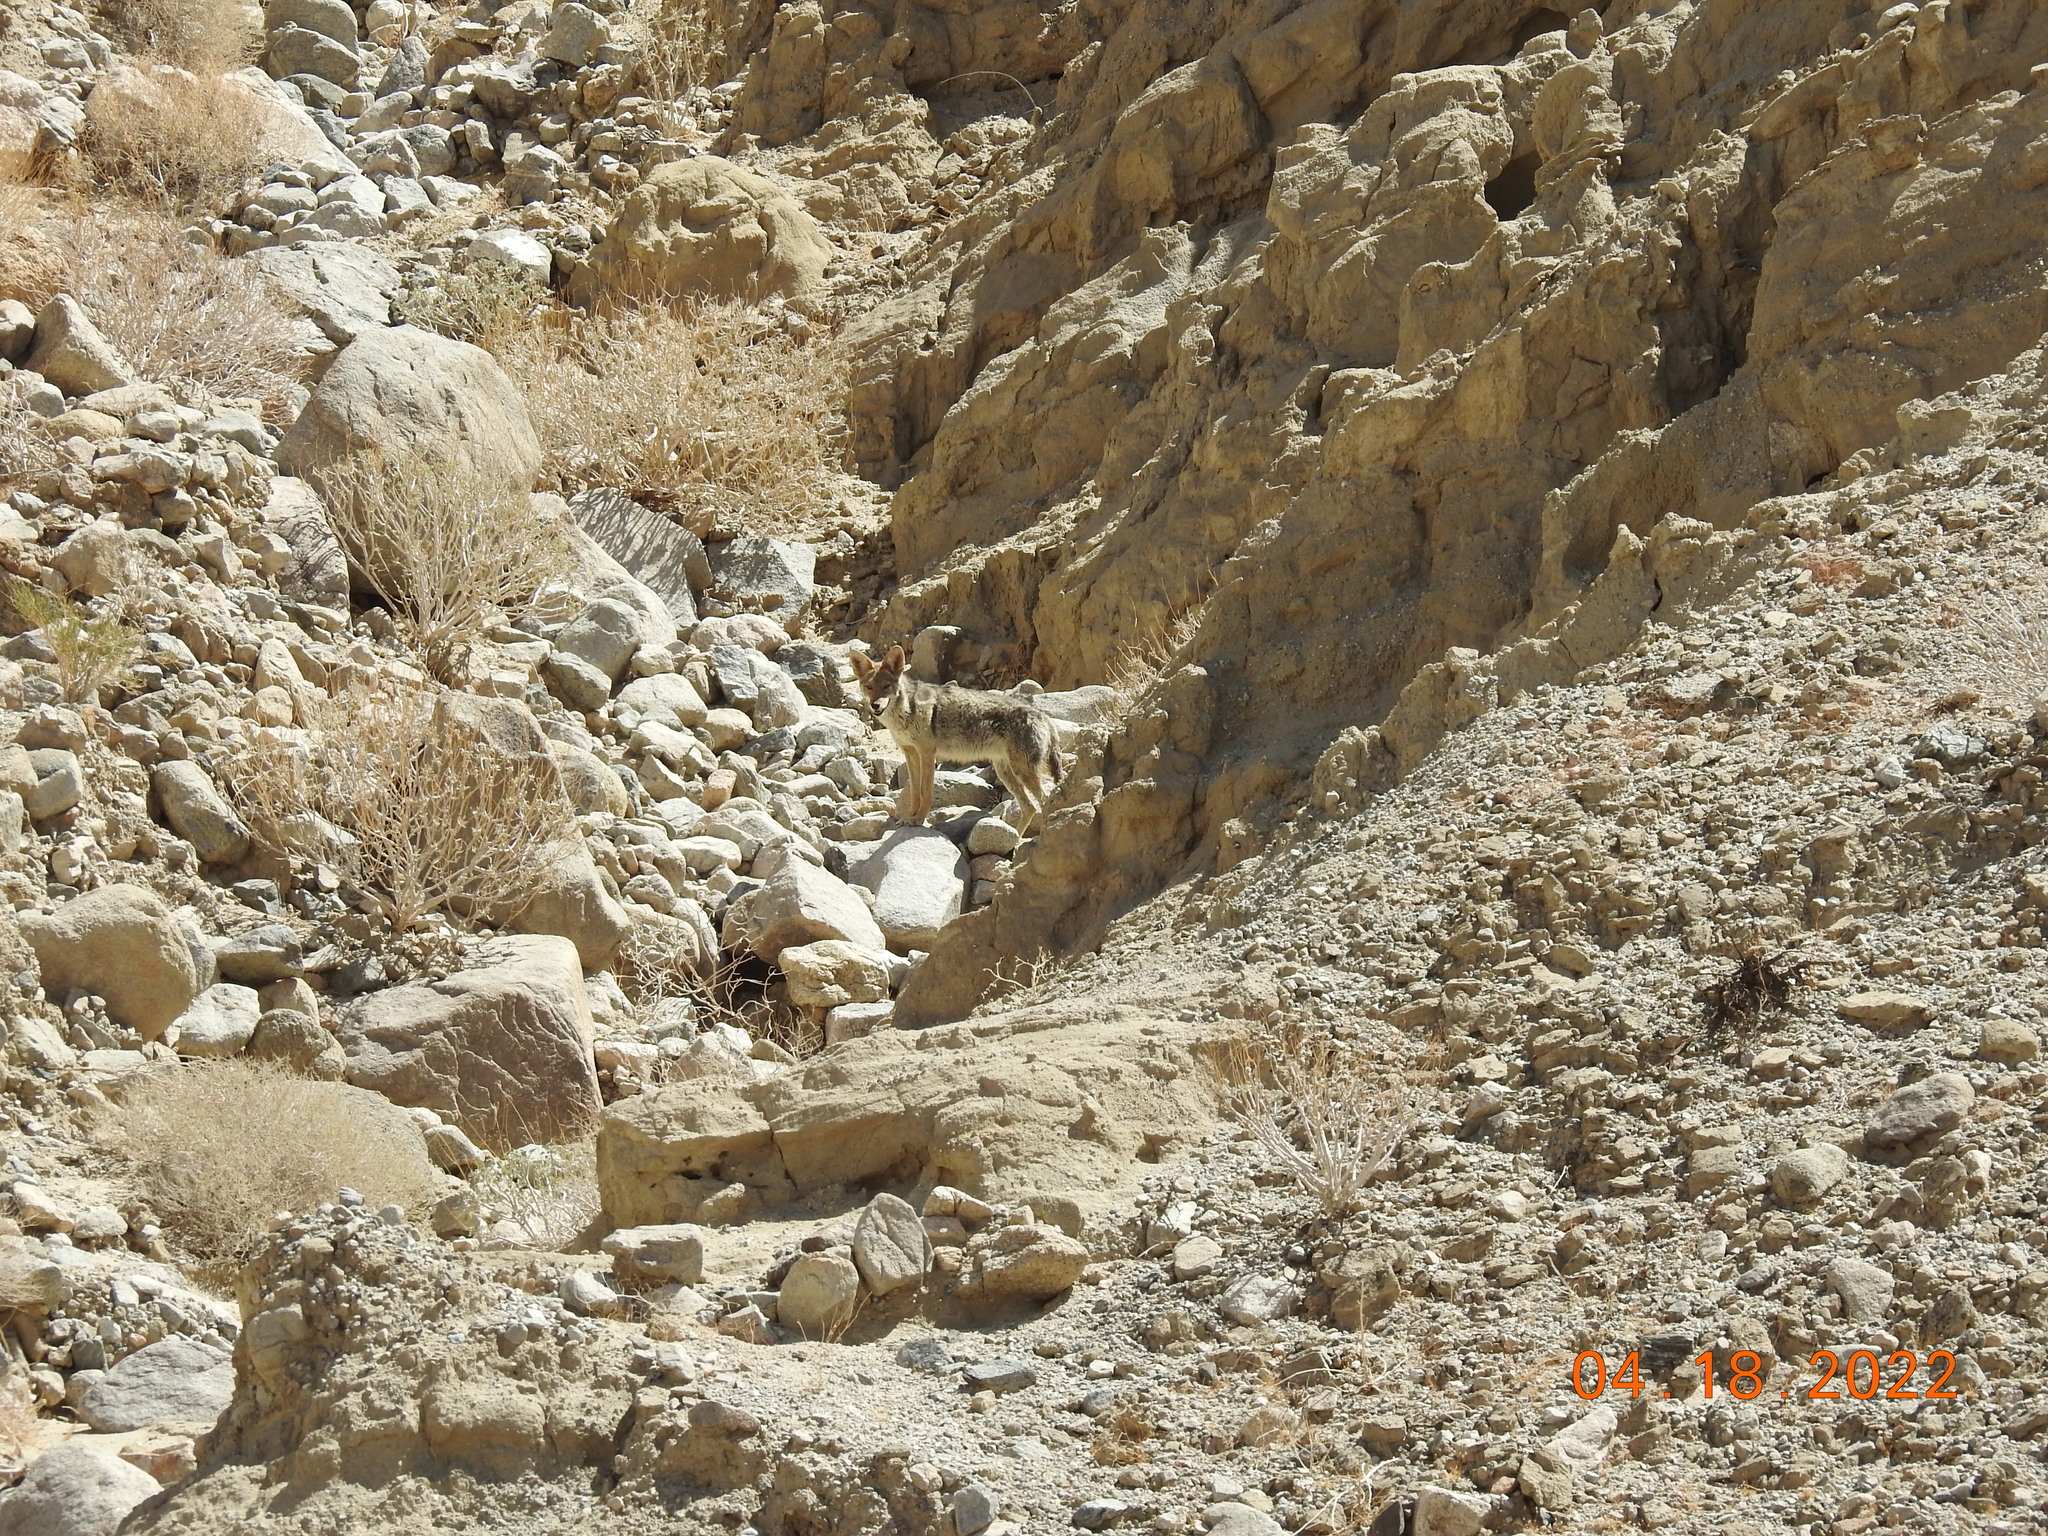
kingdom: Animalia
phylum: Chordata
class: Mammalia
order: Carnivora
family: Canidae
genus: Canis
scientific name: Canis latrans
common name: Coyote
